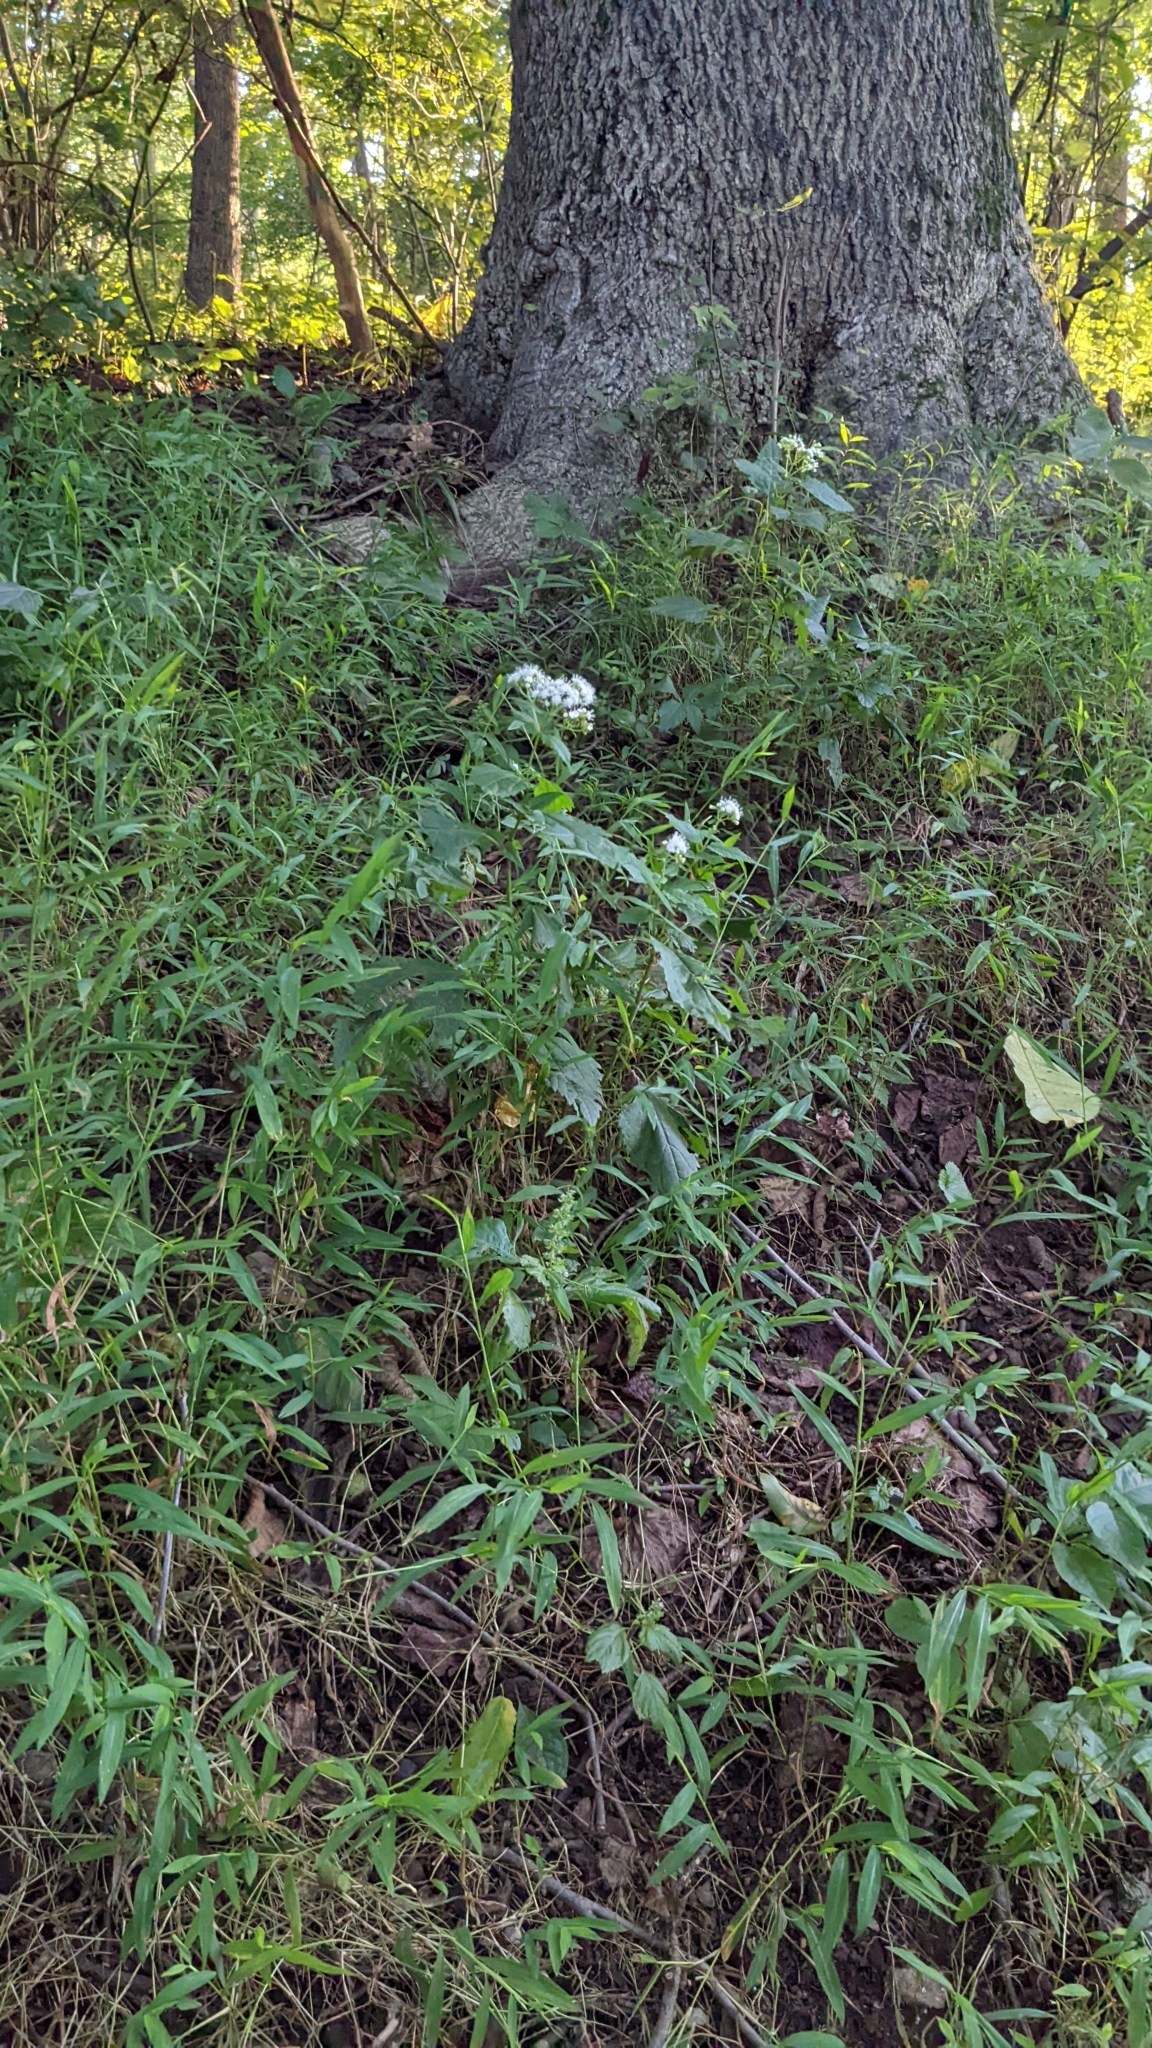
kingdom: Plantae
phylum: Tracheophyta
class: Magnoliopsida
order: Asterales
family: Asteraceae
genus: Ageratina
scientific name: Ageratina altissima
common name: White snakeroot
